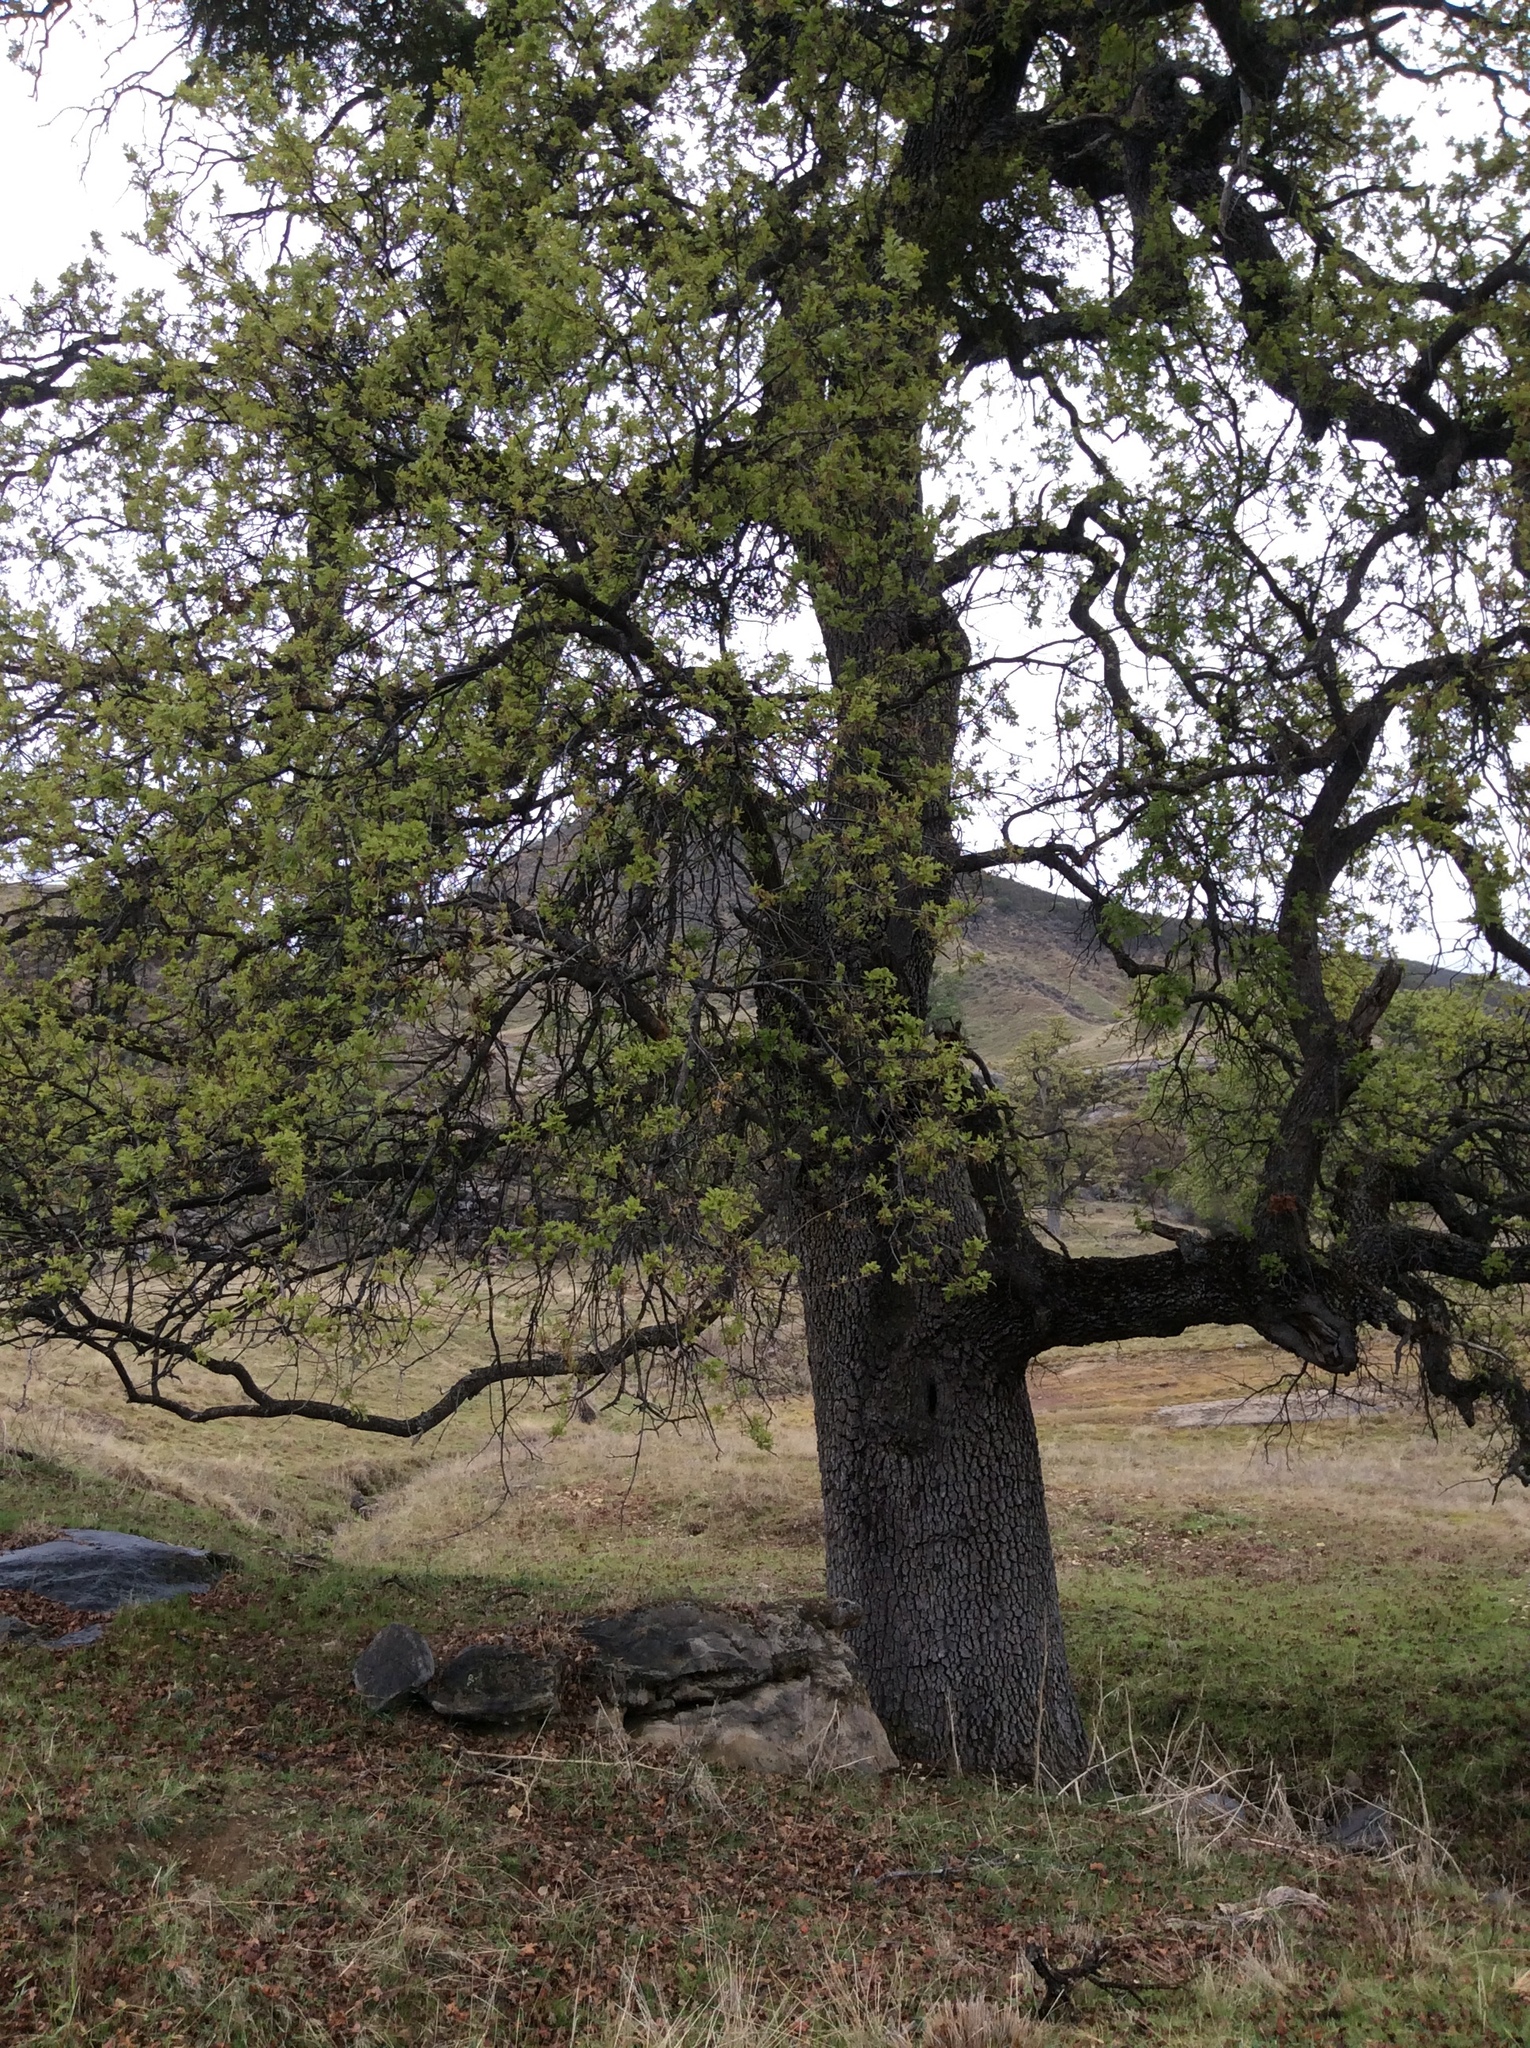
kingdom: Plantae
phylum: Tracheophyta
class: Magnoliopsida
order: Fagales
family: Fagaceae
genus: Quercus
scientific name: Quercus lobata
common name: Valley oak
